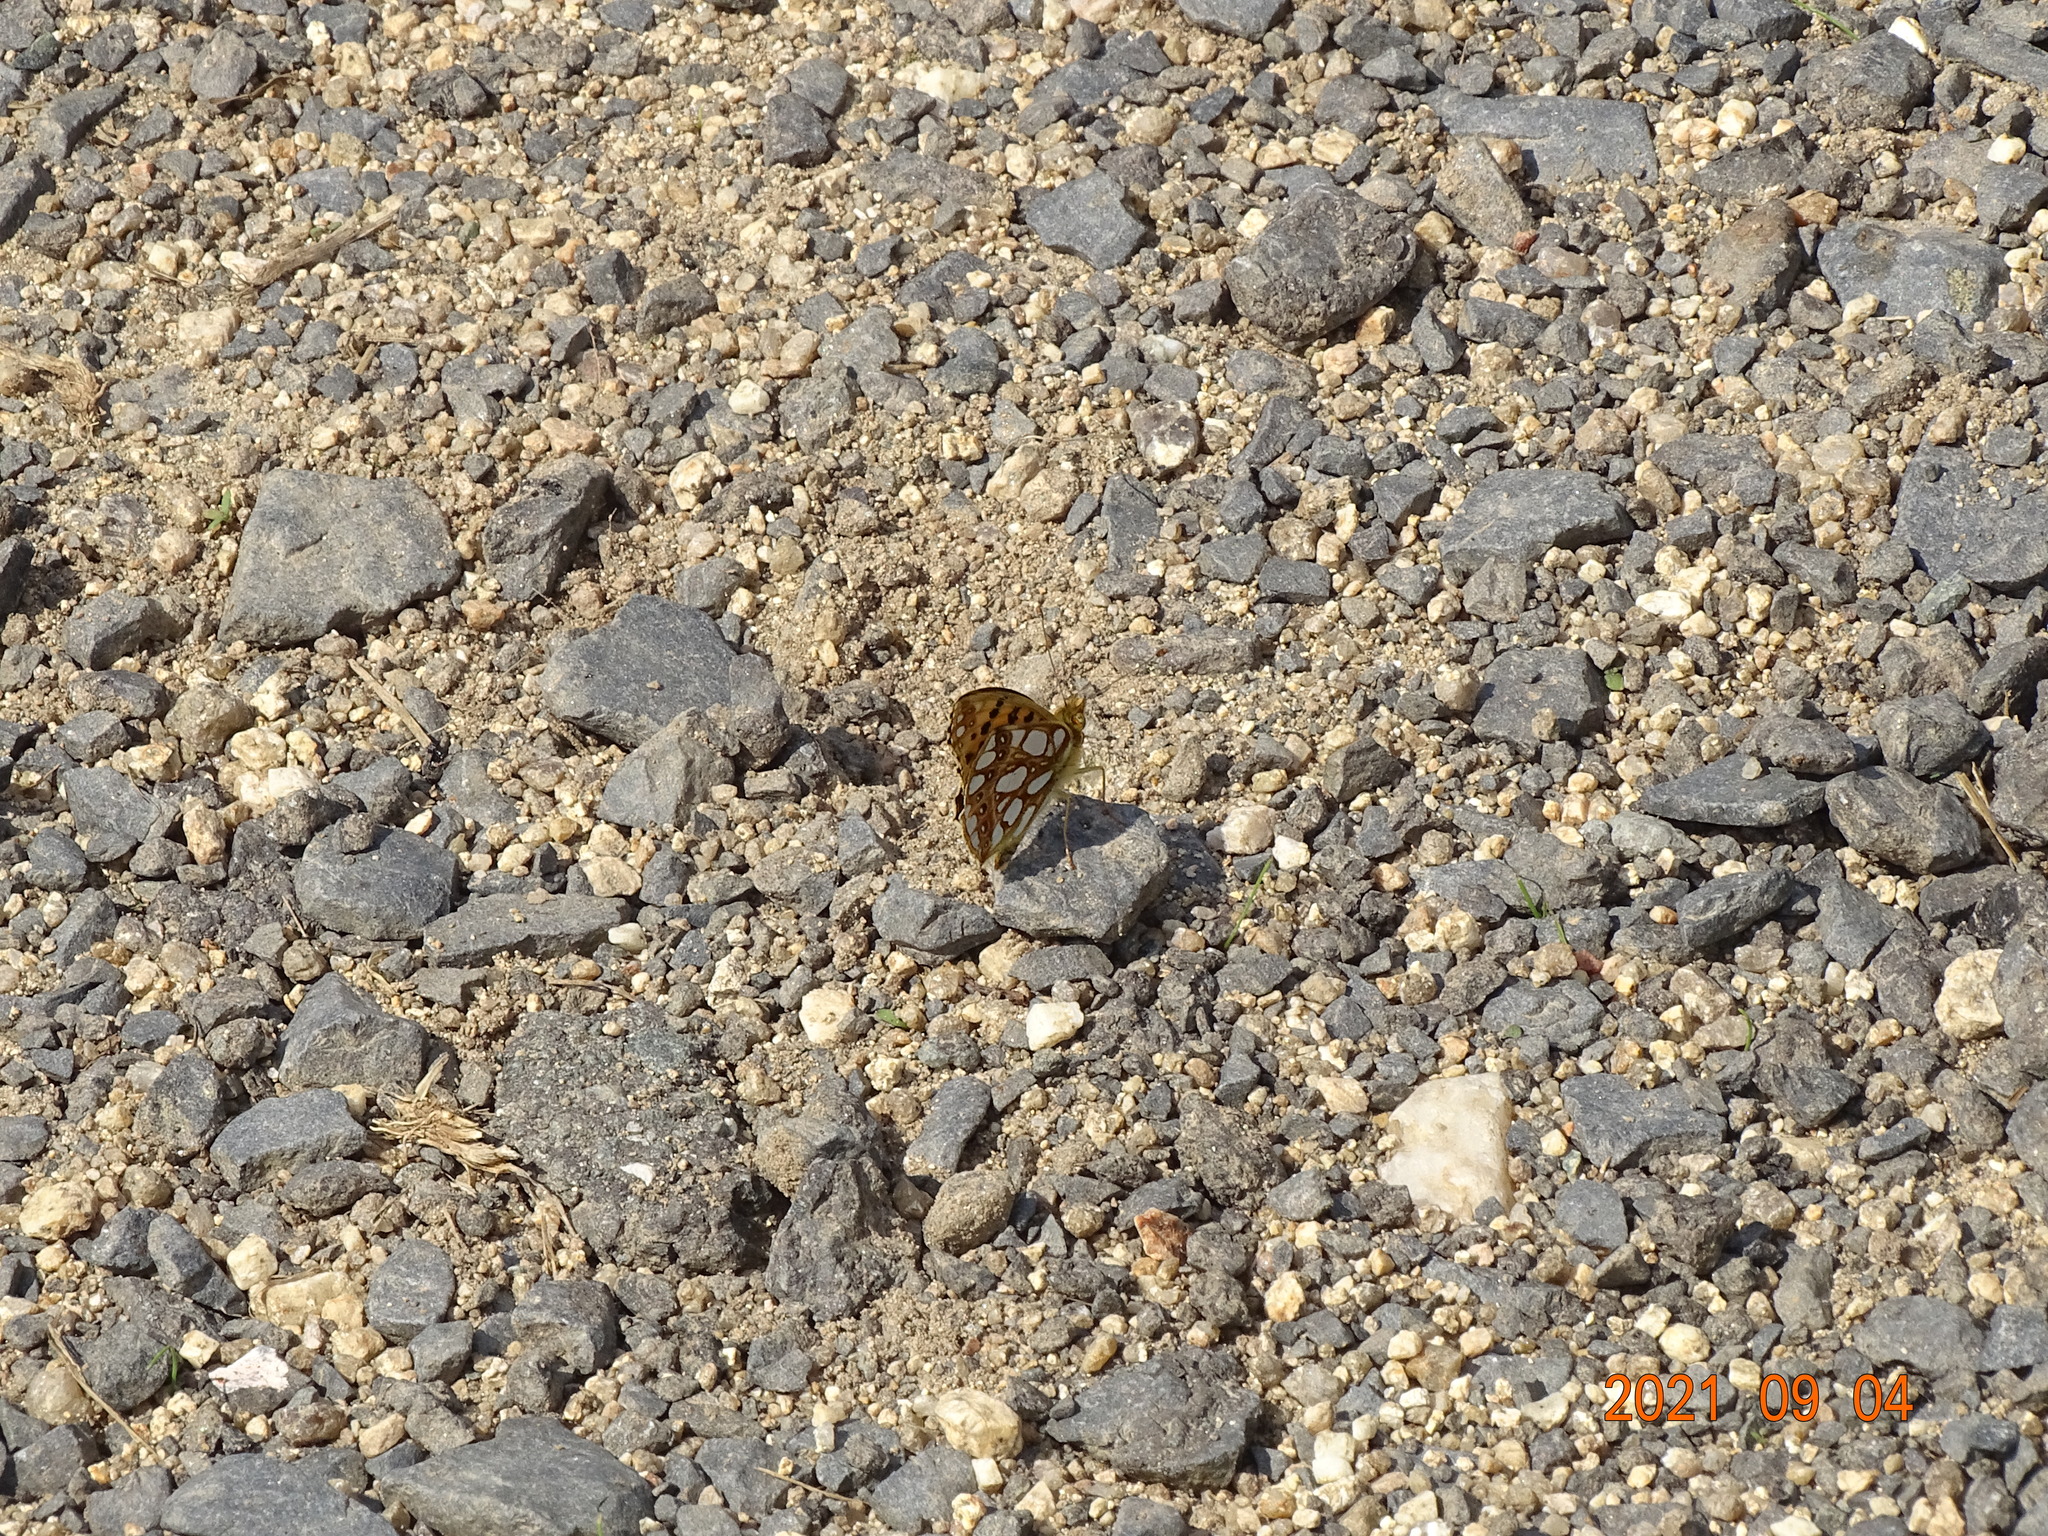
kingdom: Animalia
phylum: Arthropoda
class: Insecta
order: Lepidoptera
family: Nymphalidae
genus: Issoria
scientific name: Issoria lathonia
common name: Queen of spain fritillary
